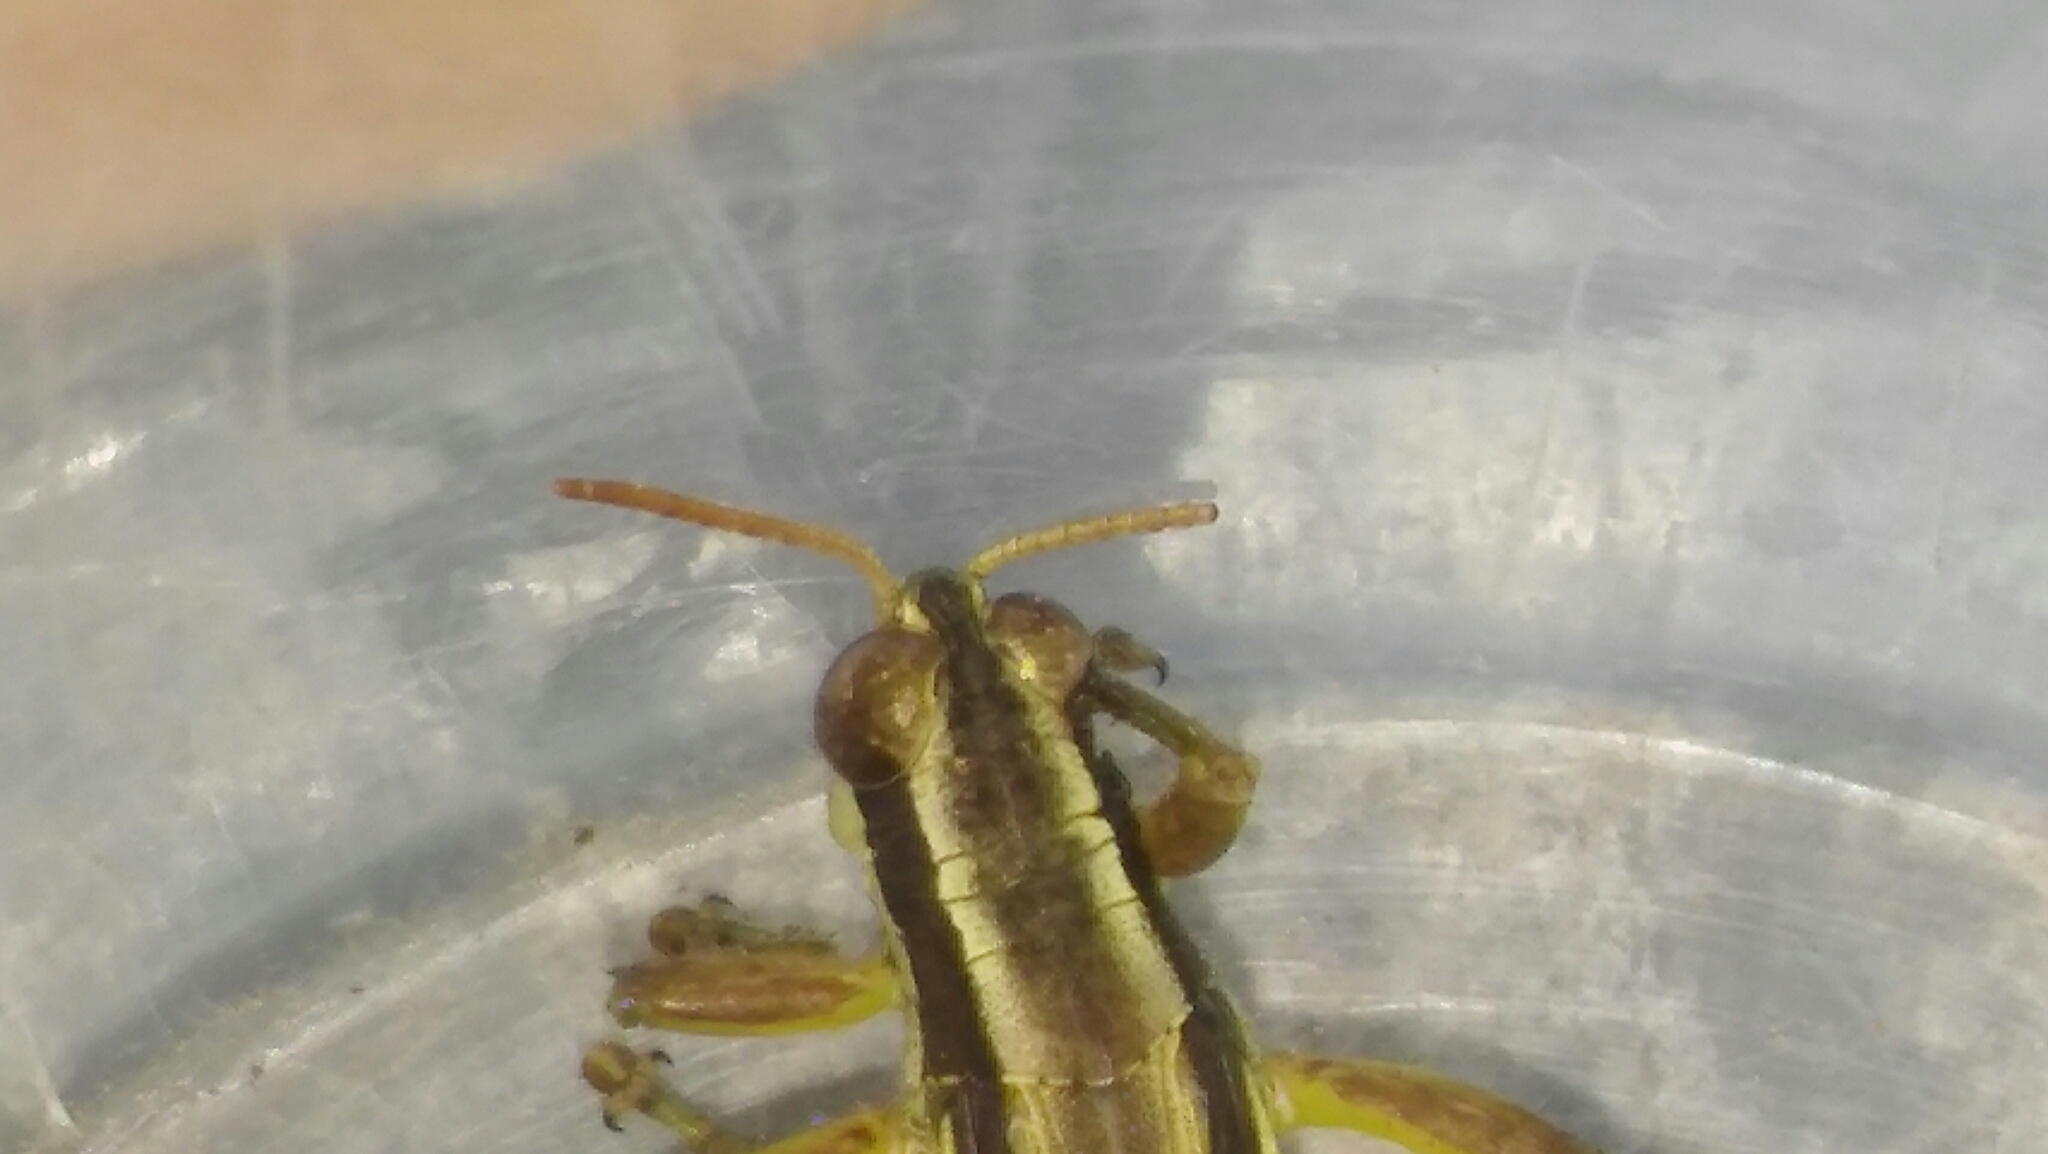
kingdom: Animalia
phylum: Arthropoda
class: Insecta
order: Orthoptera
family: Acrididae
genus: Dichroplus
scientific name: Dichroplus elongatus
